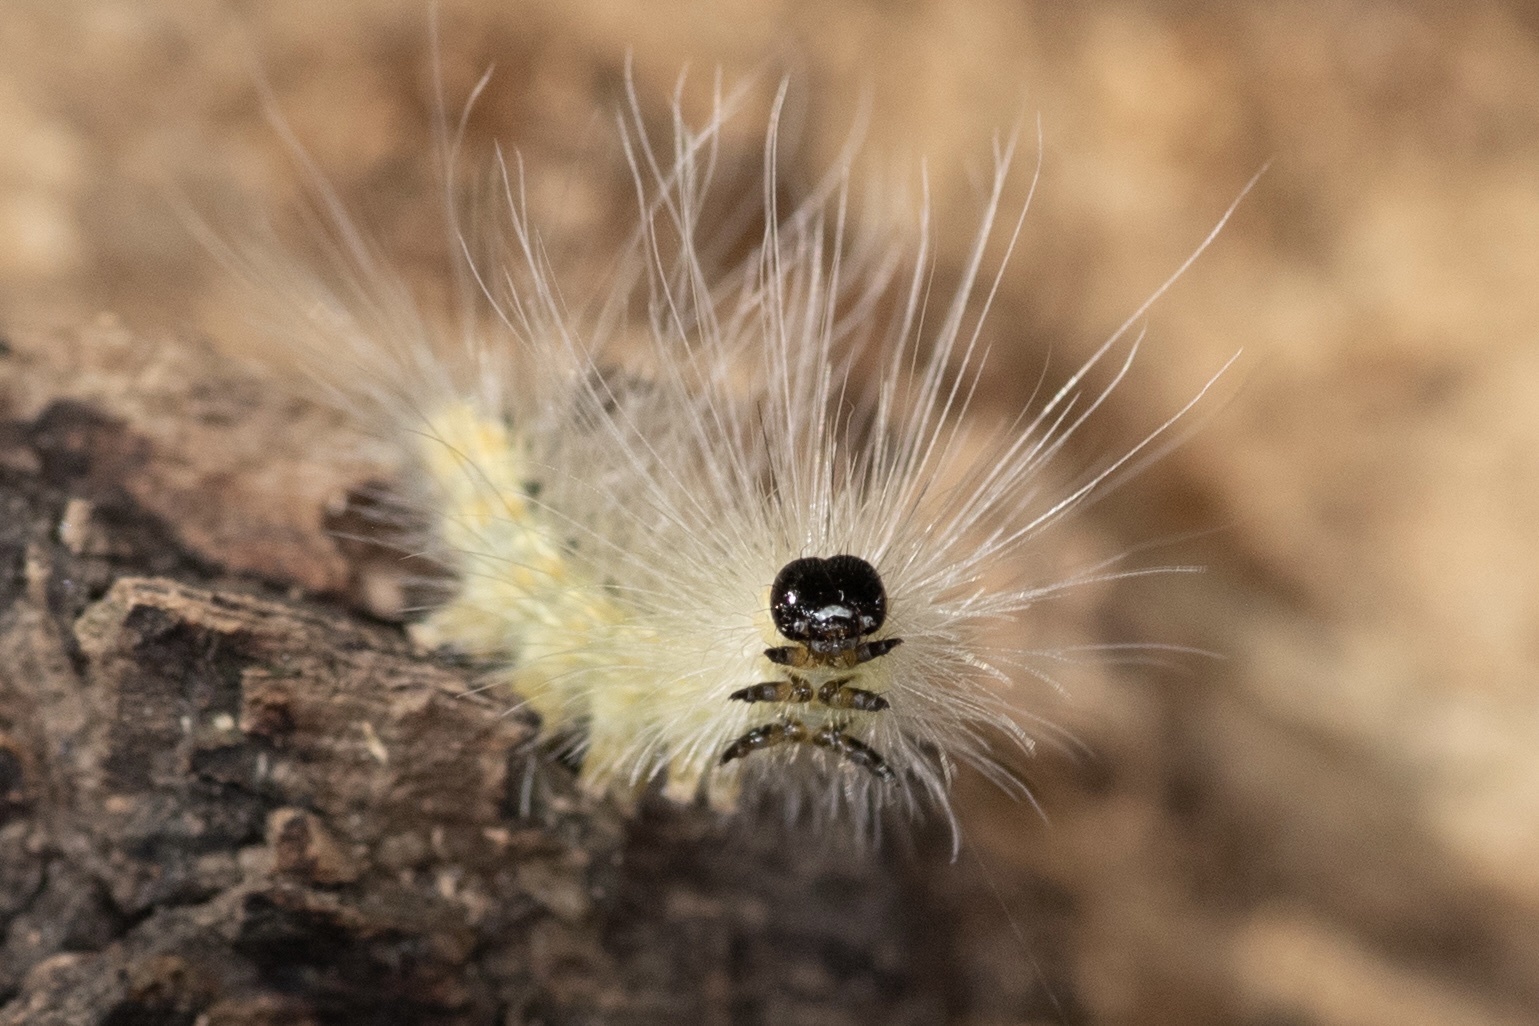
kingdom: Animalia
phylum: Arthropoda
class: Insecta
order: Lepidoptera
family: Erebidae
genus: Hyphantria
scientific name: Hyphantria cunea
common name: American white moth
